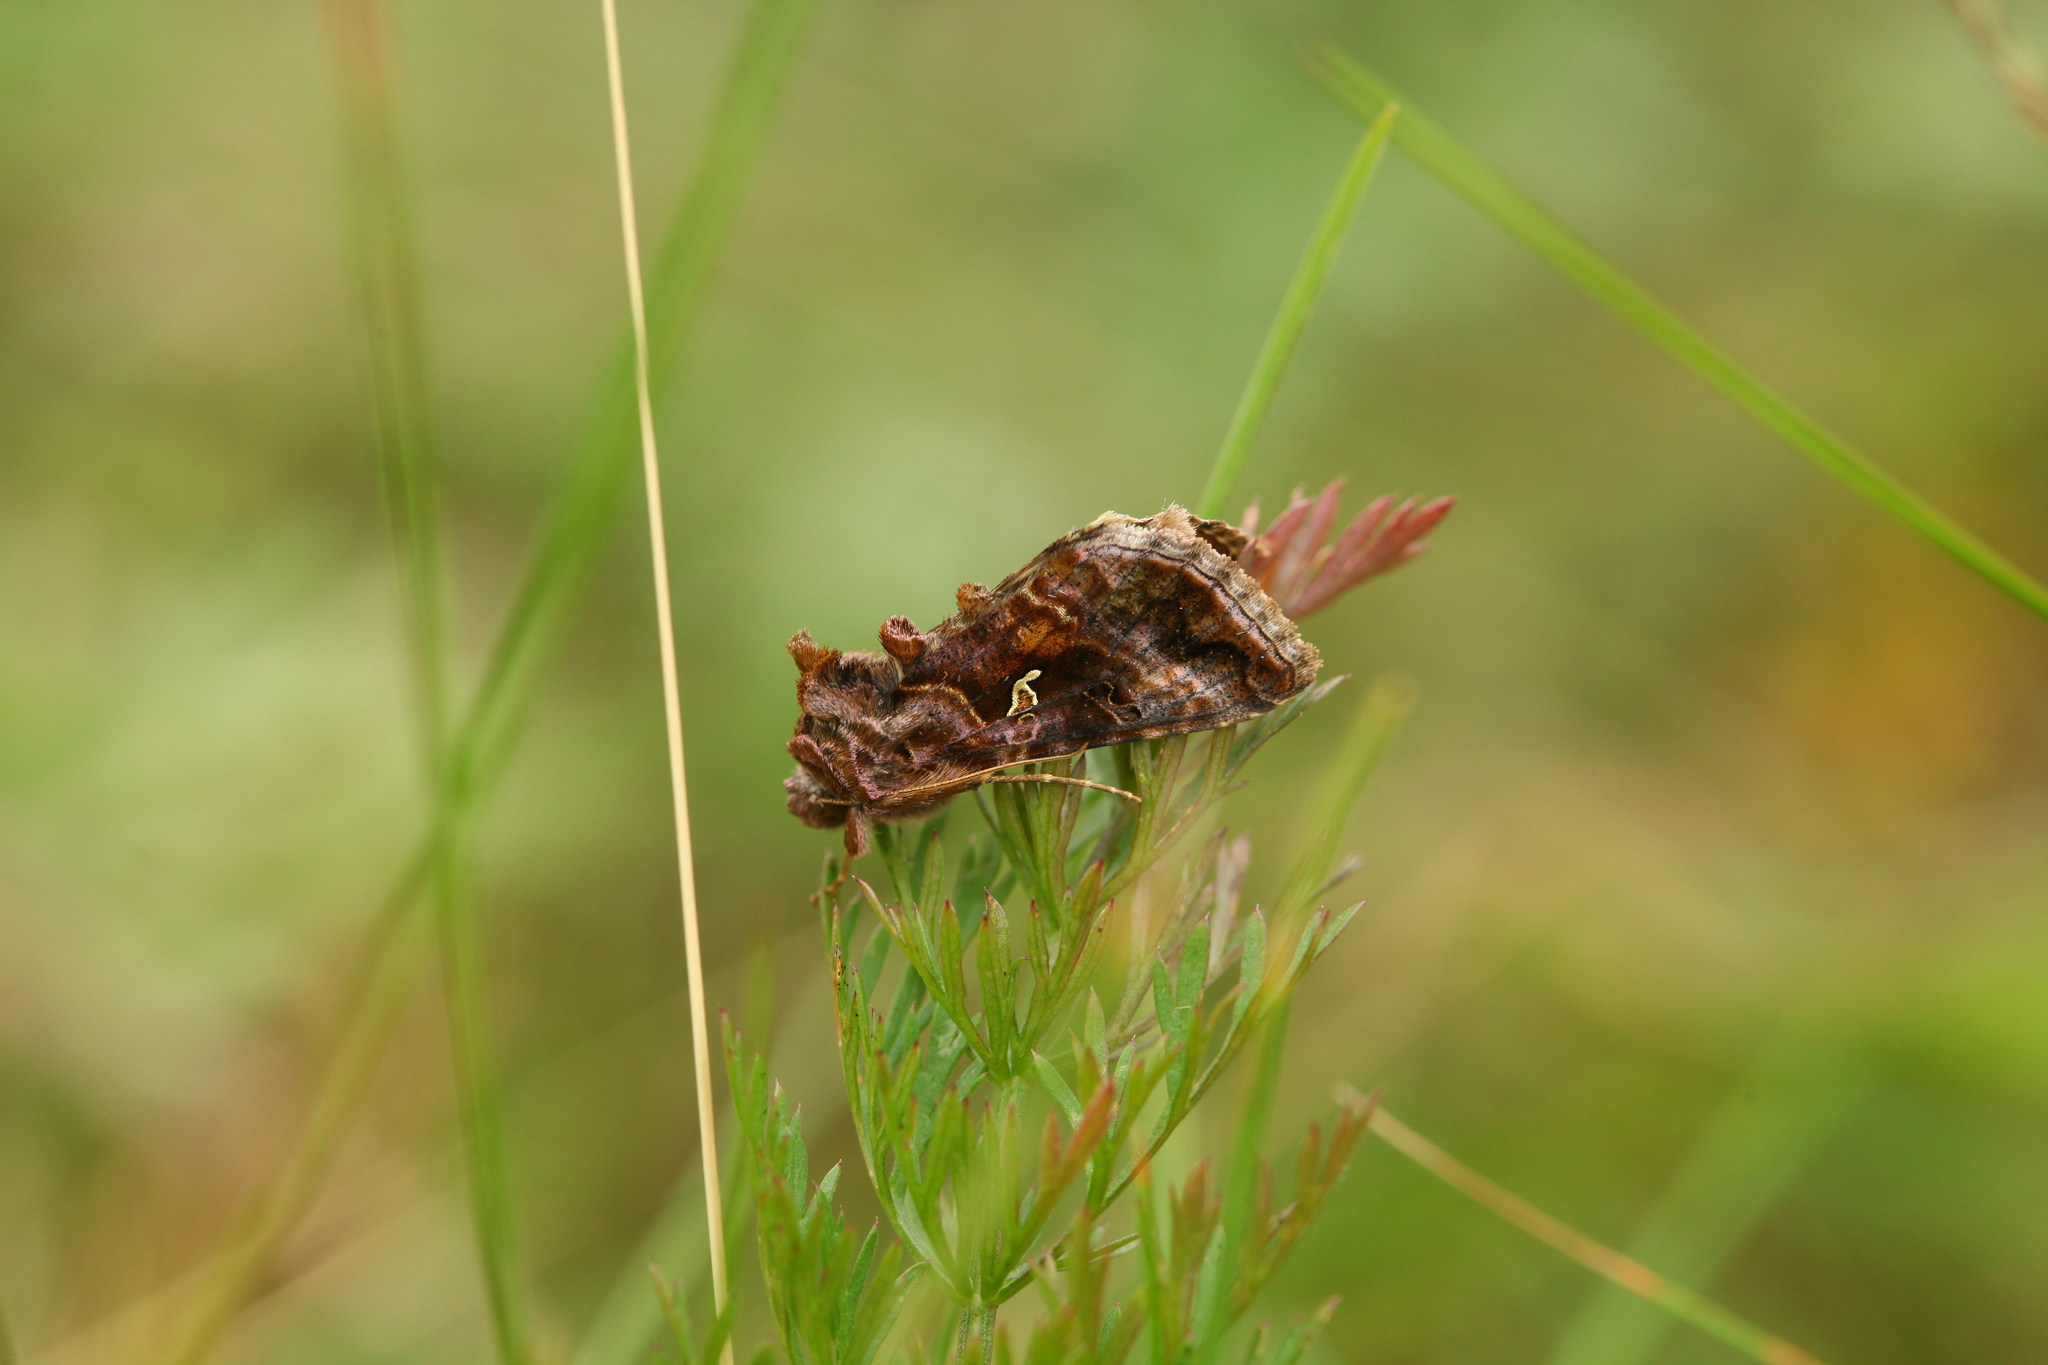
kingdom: Animalia
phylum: Arthropoda
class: Insecta
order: Lepidoptera
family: Noctuidae
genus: Autographa
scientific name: Autographa buraetica
